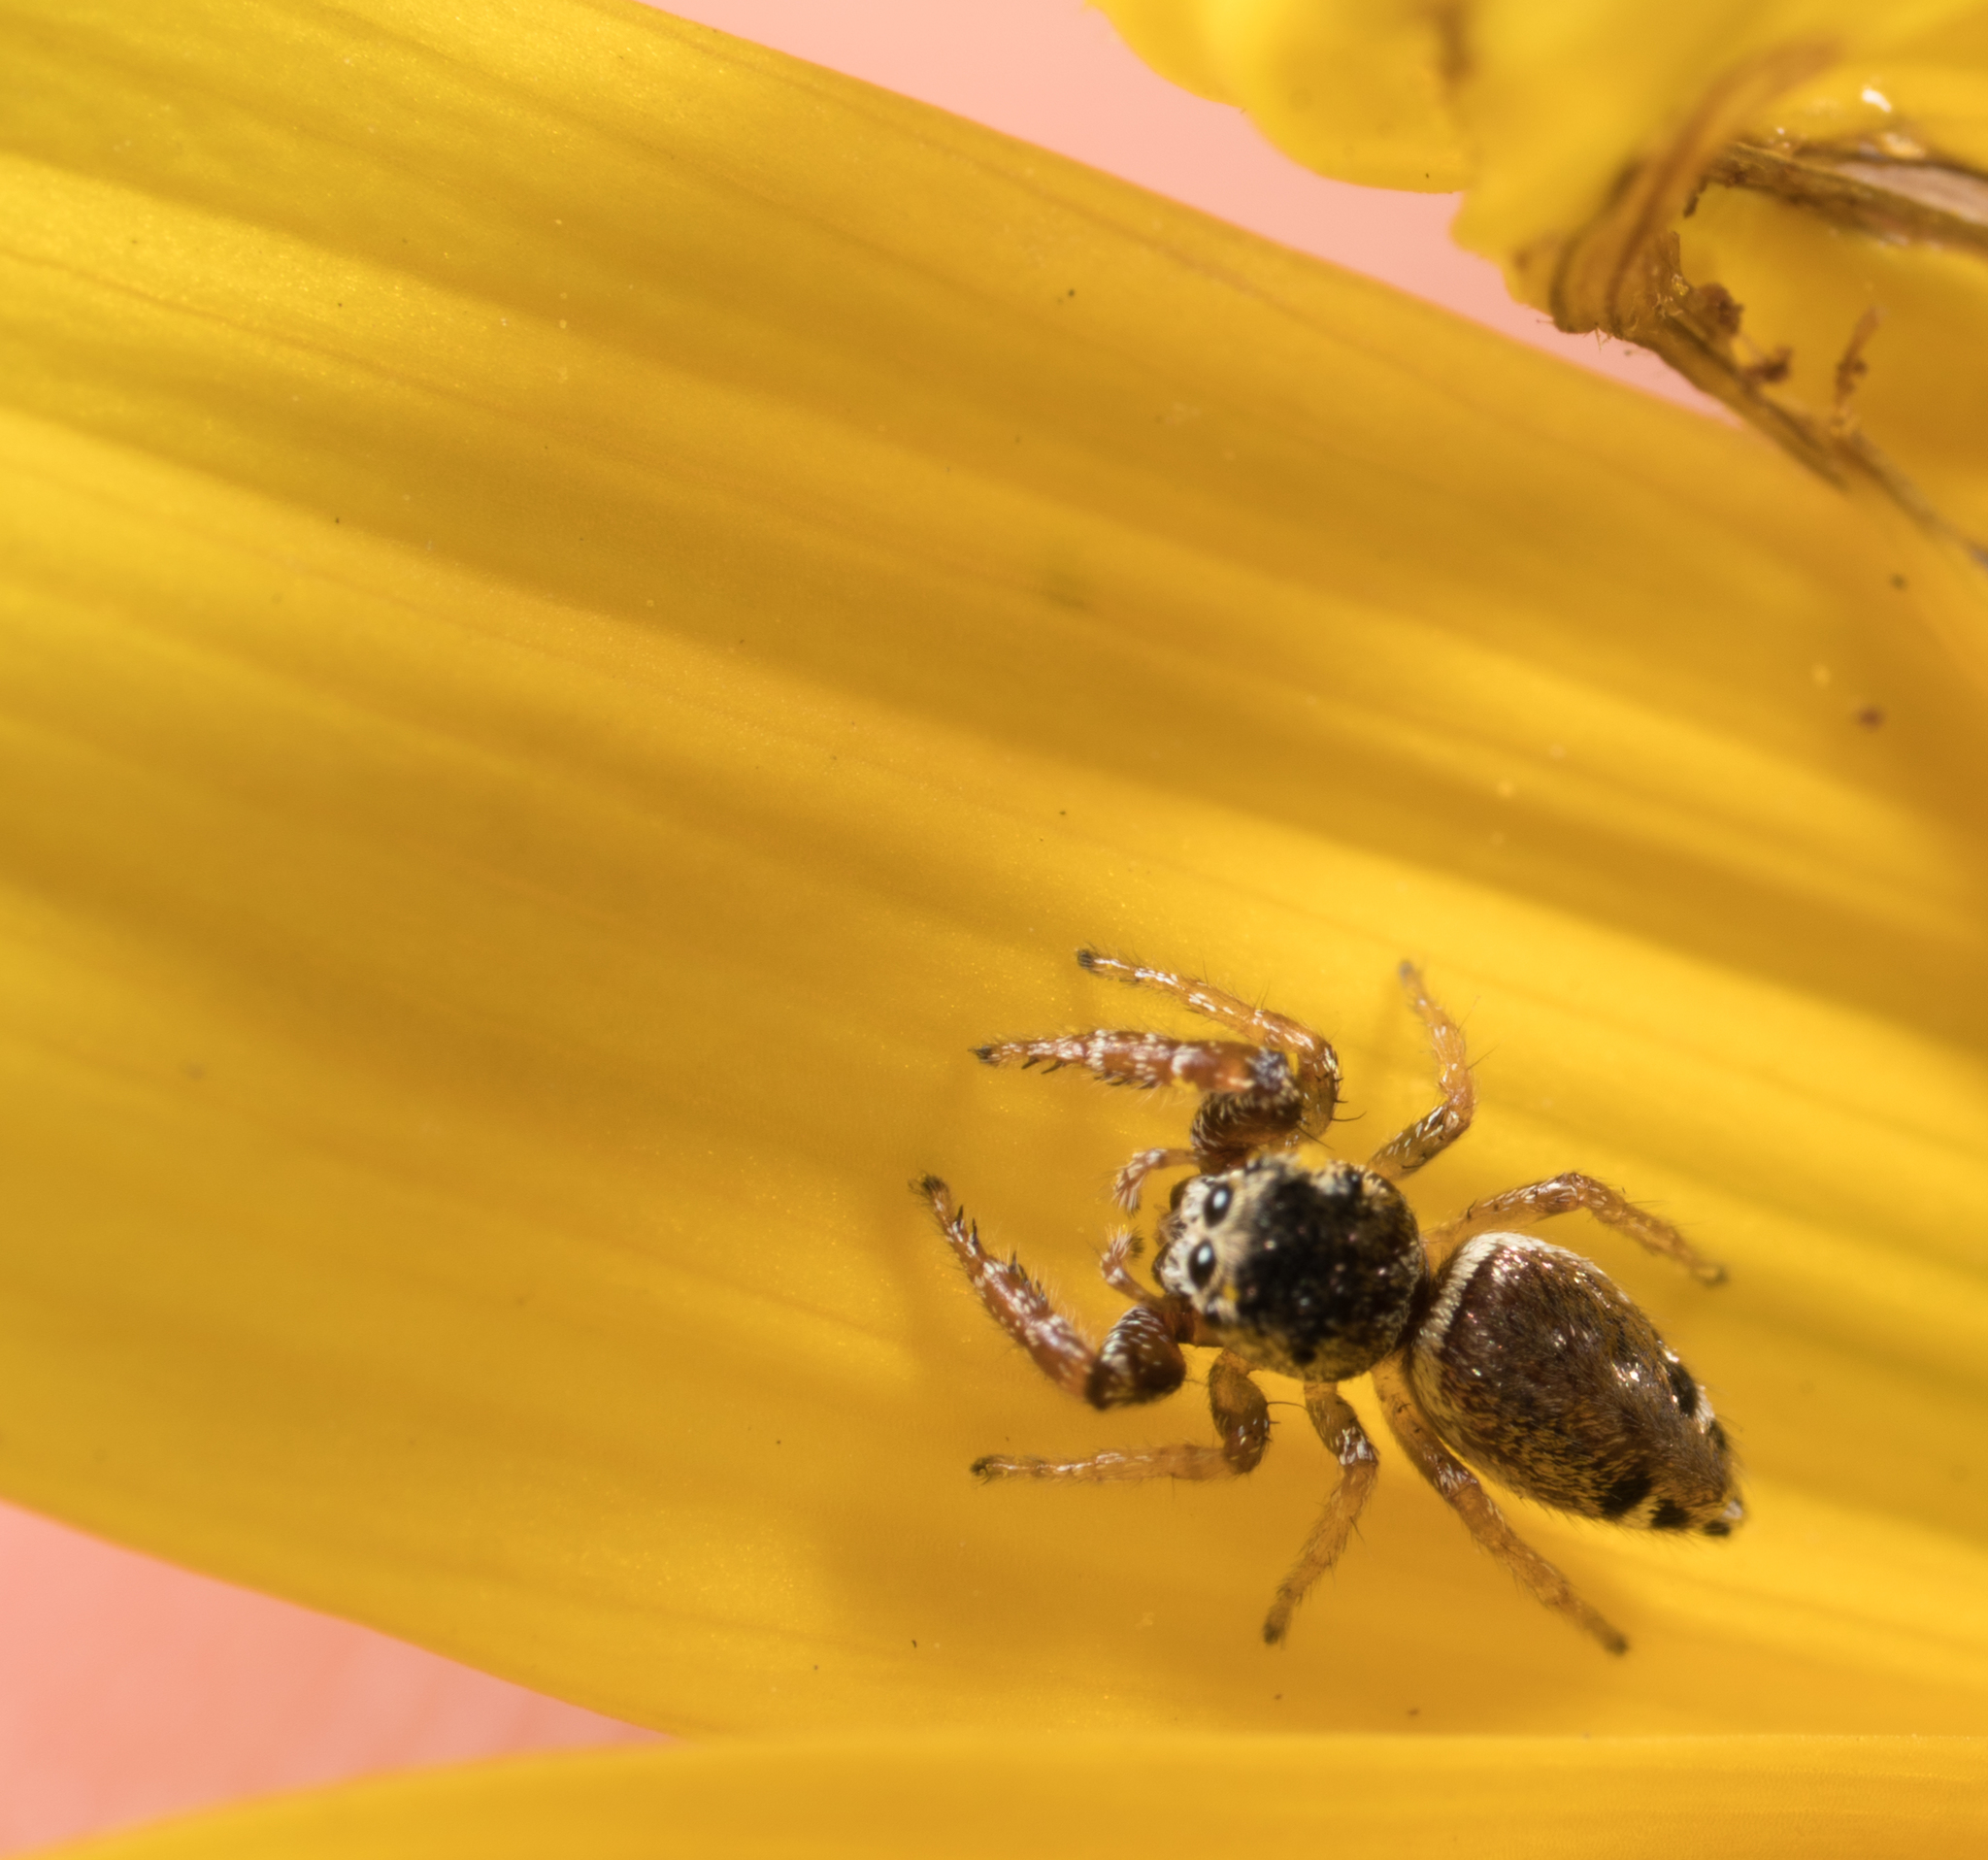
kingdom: Animalia
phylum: Arthropoda
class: Arachnida
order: Araneae
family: Salticidae
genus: Sassacus
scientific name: Sassacus vitis
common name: Jumping spiders
